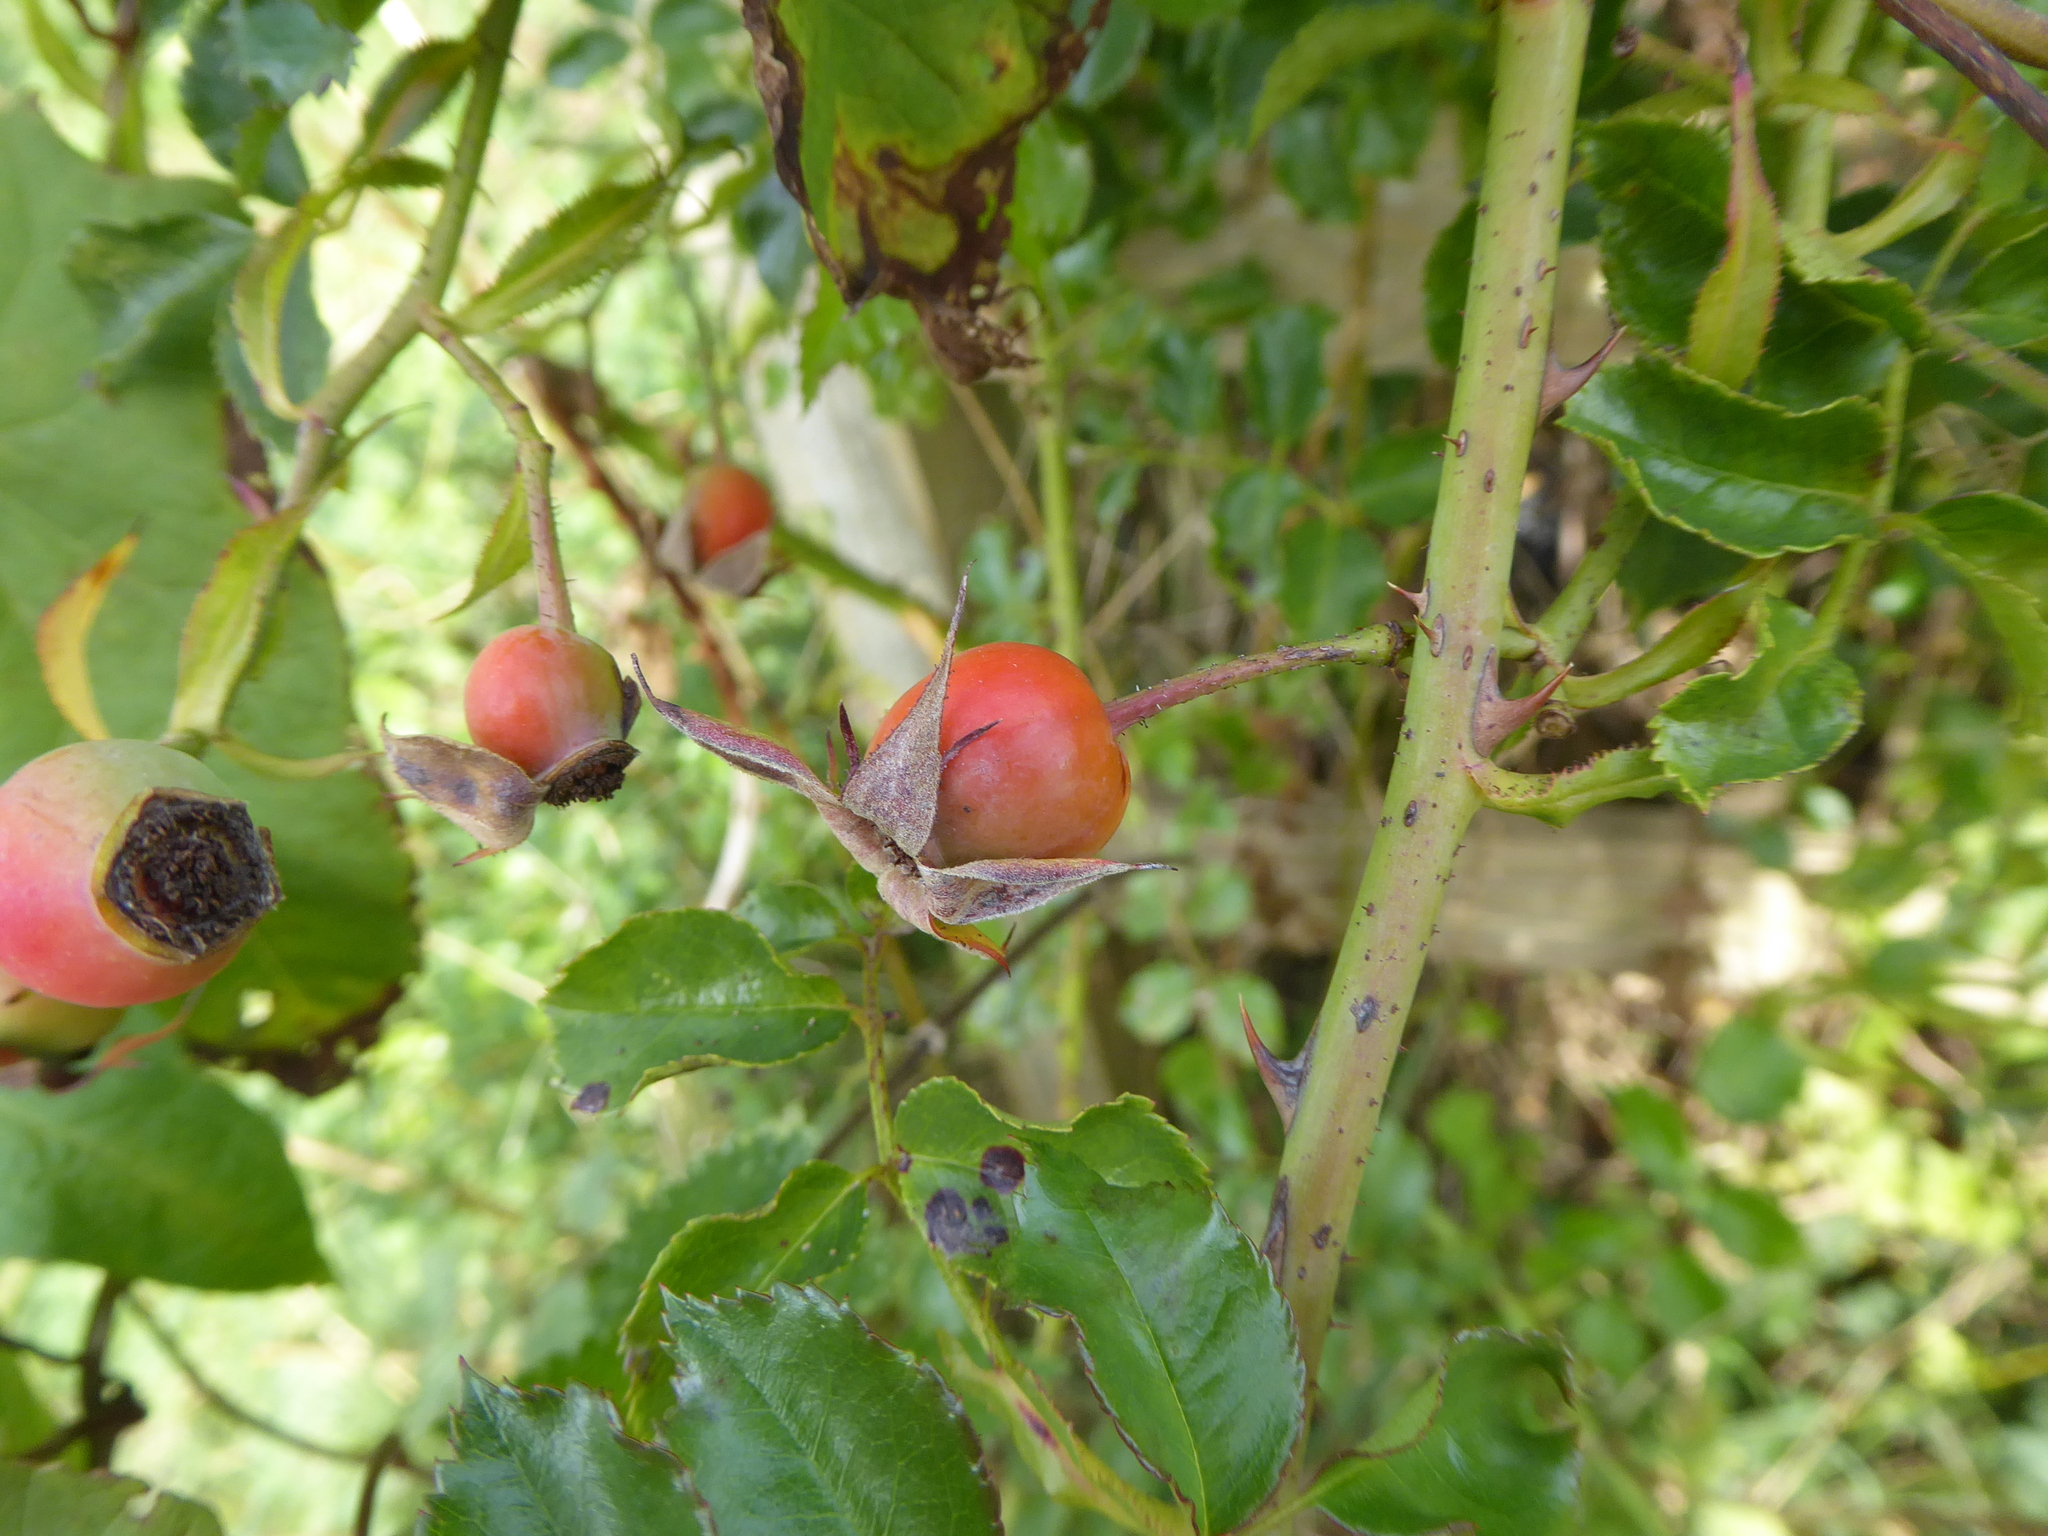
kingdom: Plantae
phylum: Tracheophyta
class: Magnoliopsida
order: Rosales
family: Rosaceae
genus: Rosa
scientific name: Rosa alba
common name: White rose
